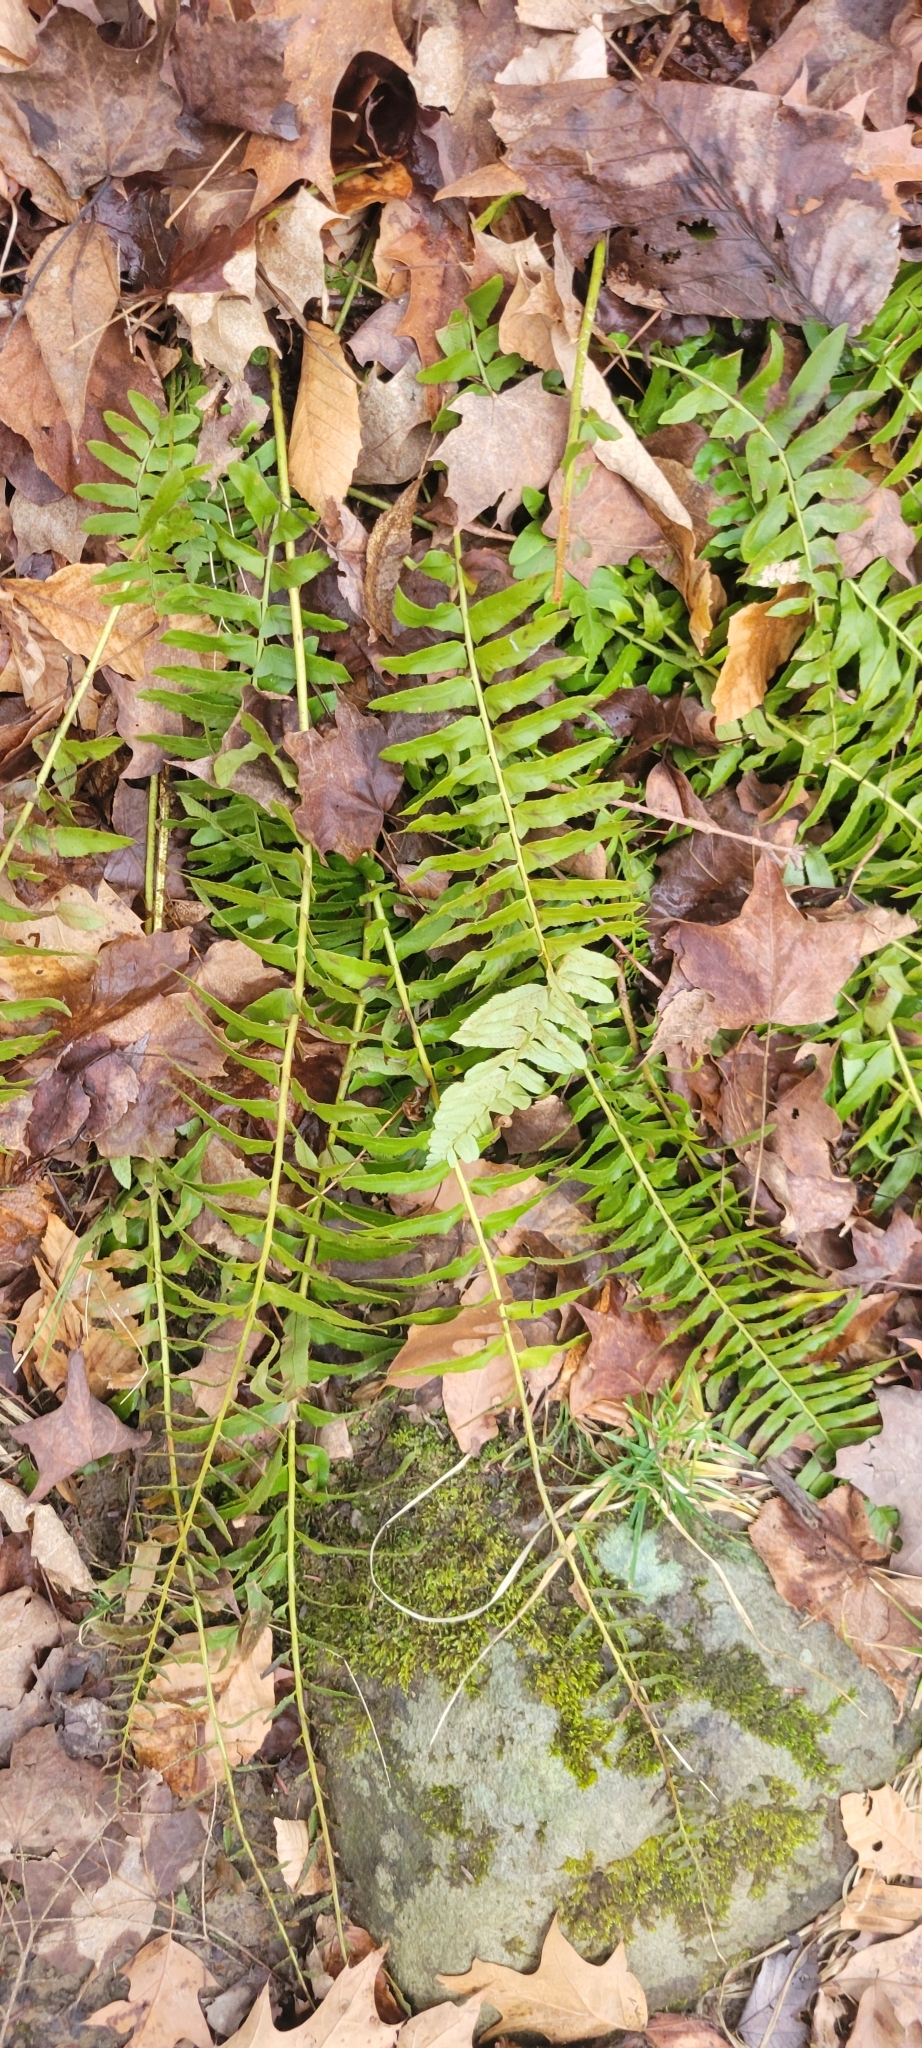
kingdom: Plantae
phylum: Tracheophyta
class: Polypodiopsida
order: Polypodiales
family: Dryopteridaceae
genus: Polystichum
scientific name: Polystichum acrostichoides
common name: Christmas fern
